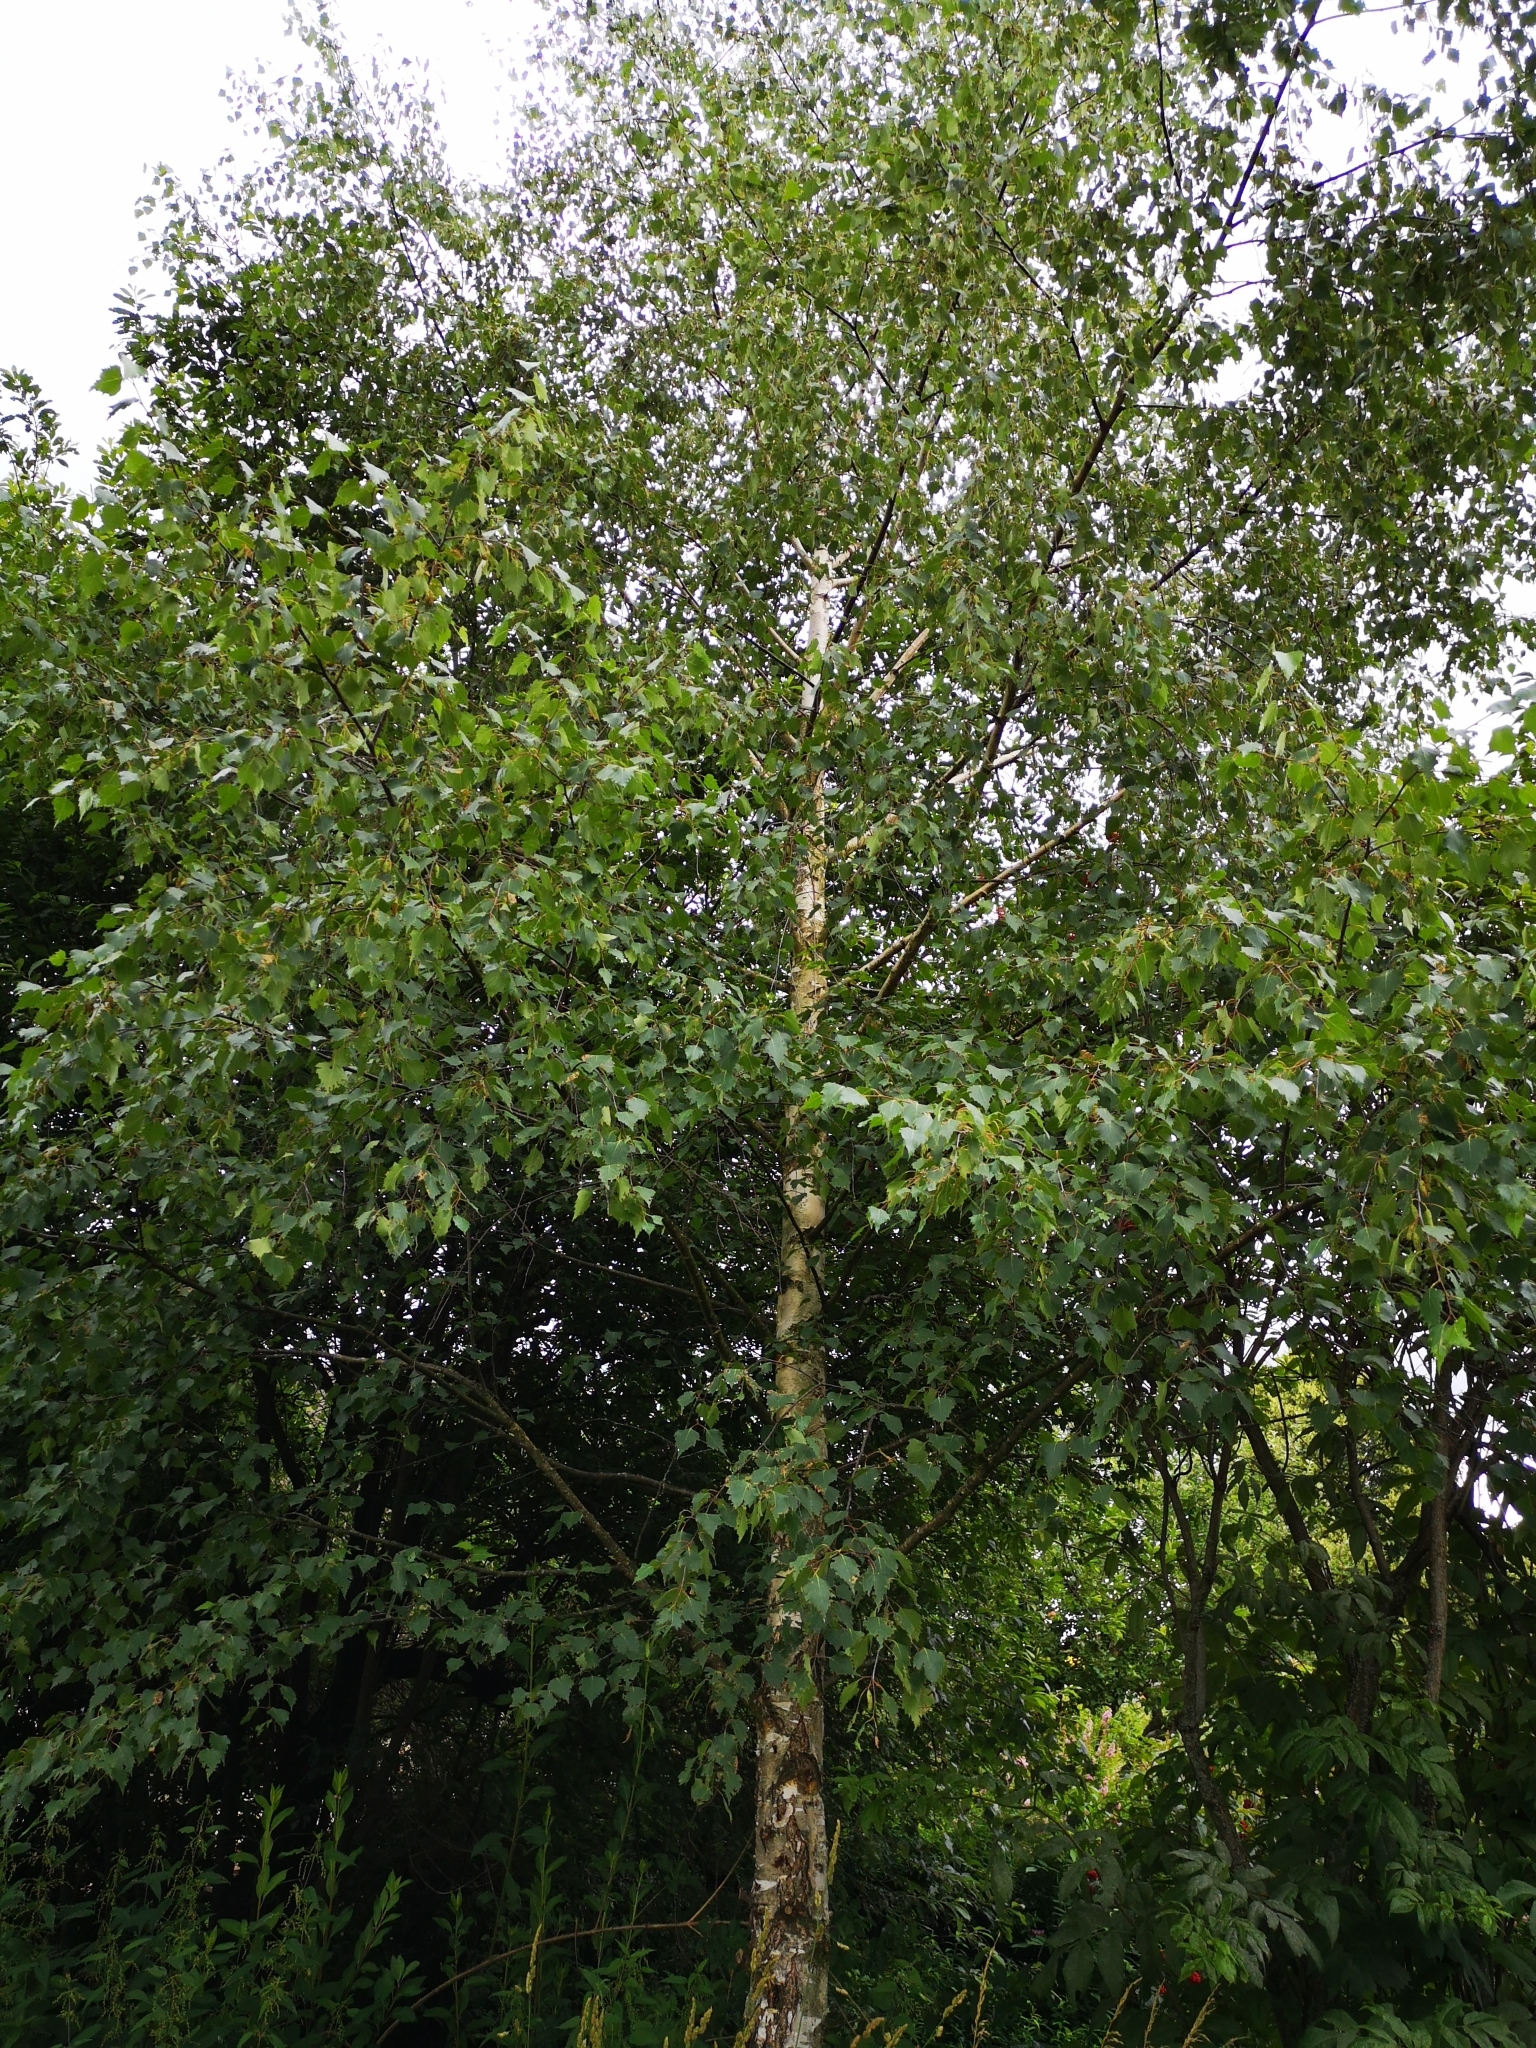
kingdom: Plantae
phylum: Tracheophyta
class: Magnoliopsida
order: Fagales
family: Betulaceae
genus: Betula
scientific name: Betula pendula
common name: Silver birch
